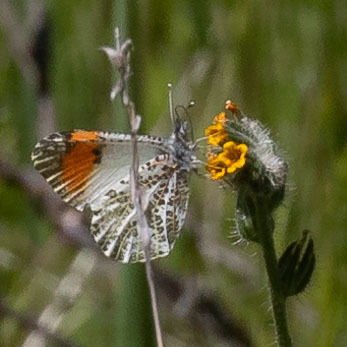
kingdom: Animalia
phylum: Arthropoda
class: Insecta
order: Lepidoptera
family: Pieridae
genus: Anthocharis
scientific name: Anthocharis sara
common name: Sara's orangetip
